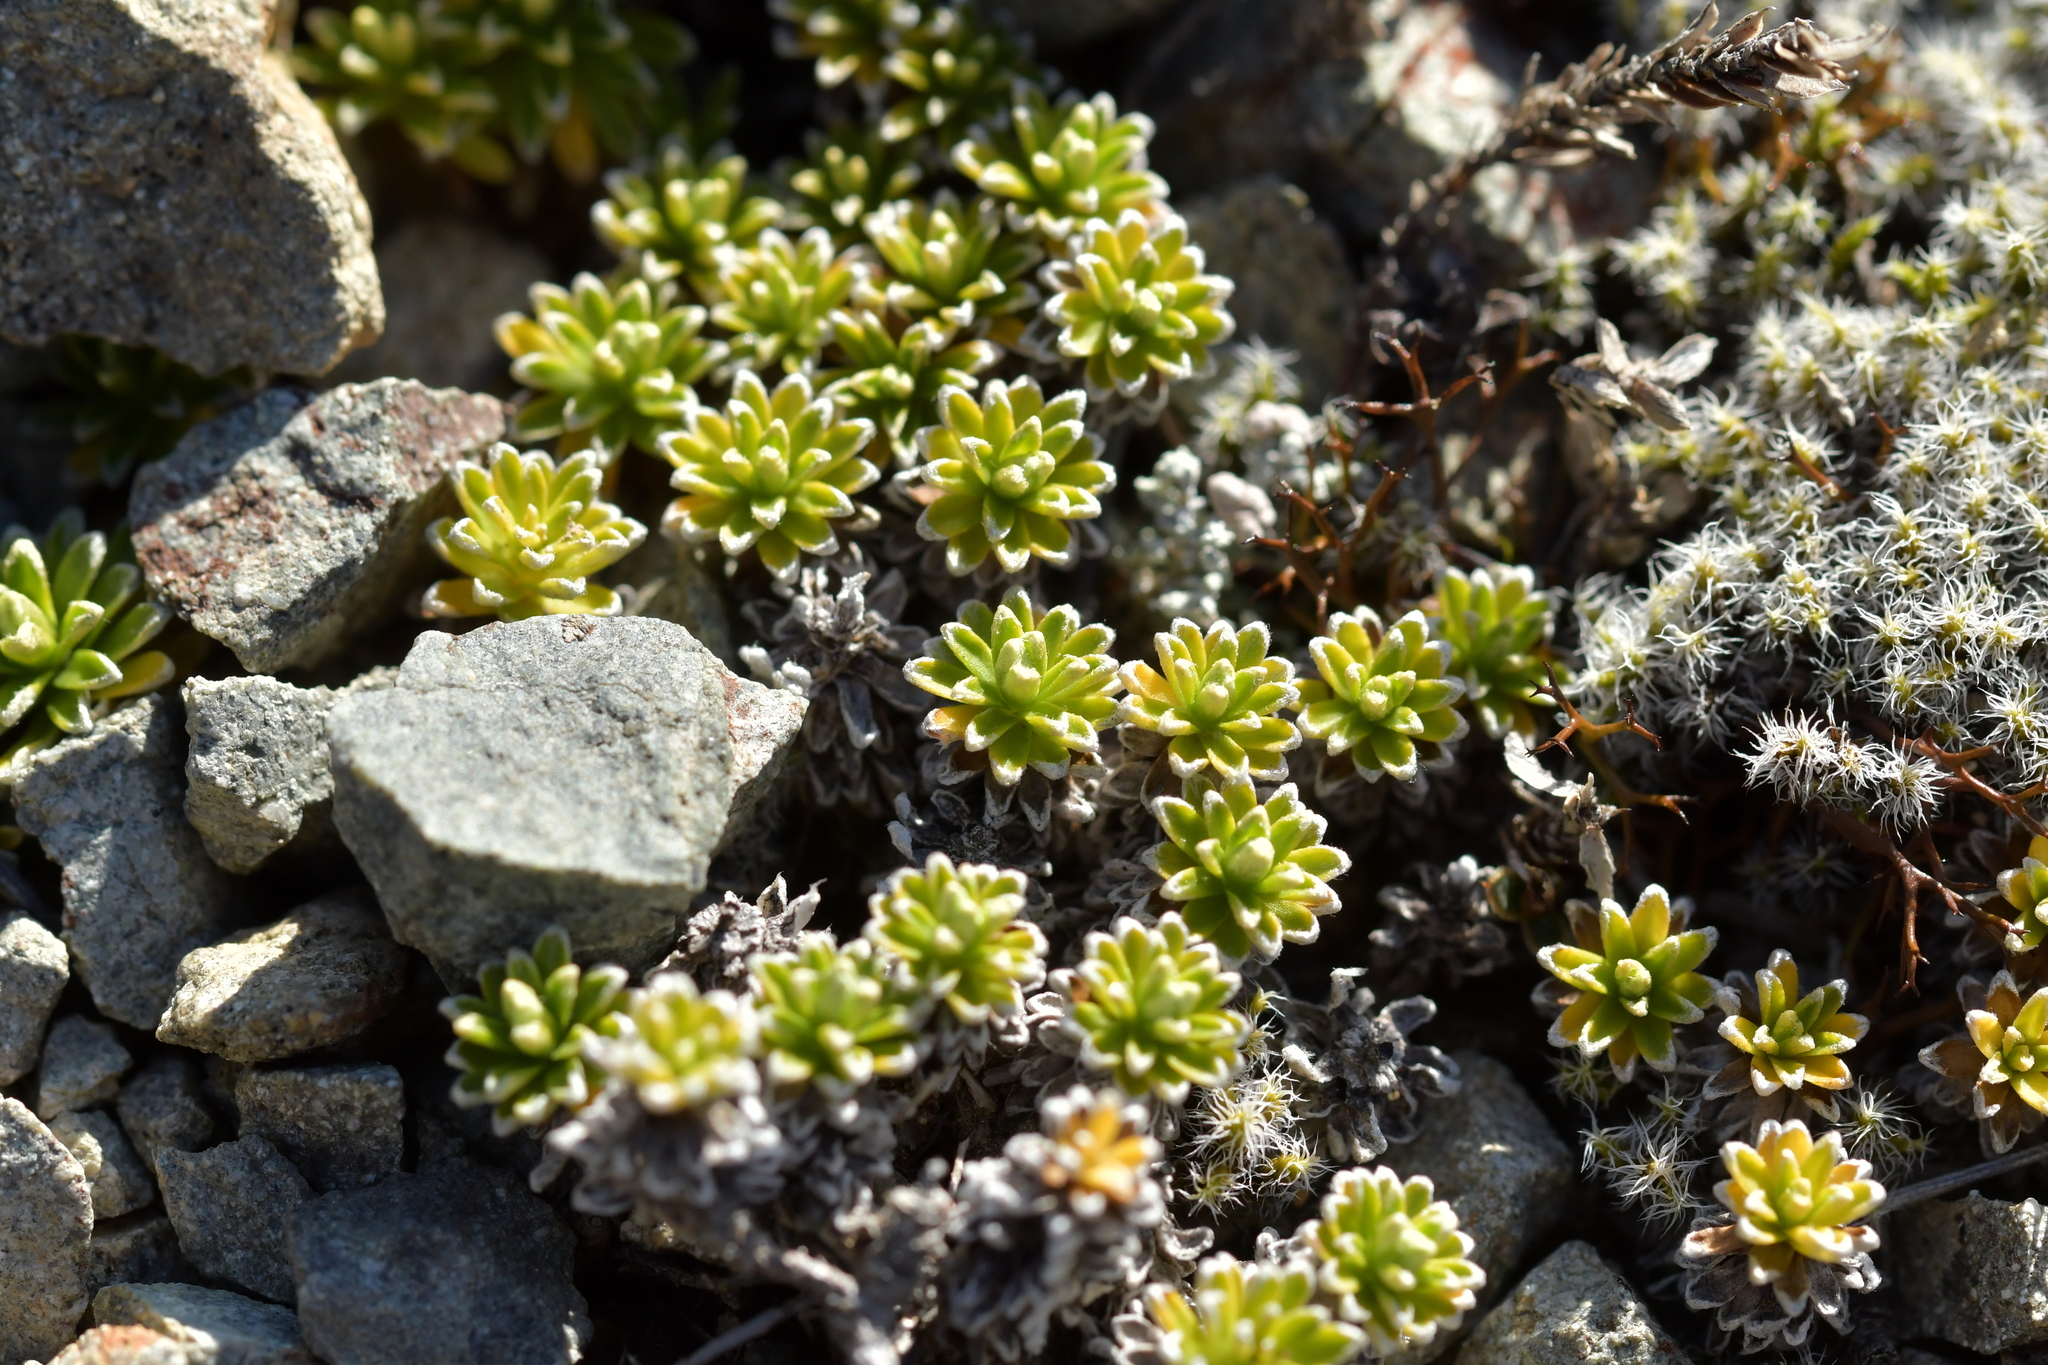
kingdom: Plantae
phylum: Tracheophyta
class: Magnoliopsida
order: Asterales
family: Asteraceae
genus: Raoulia
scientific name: Raoulia subsericea
